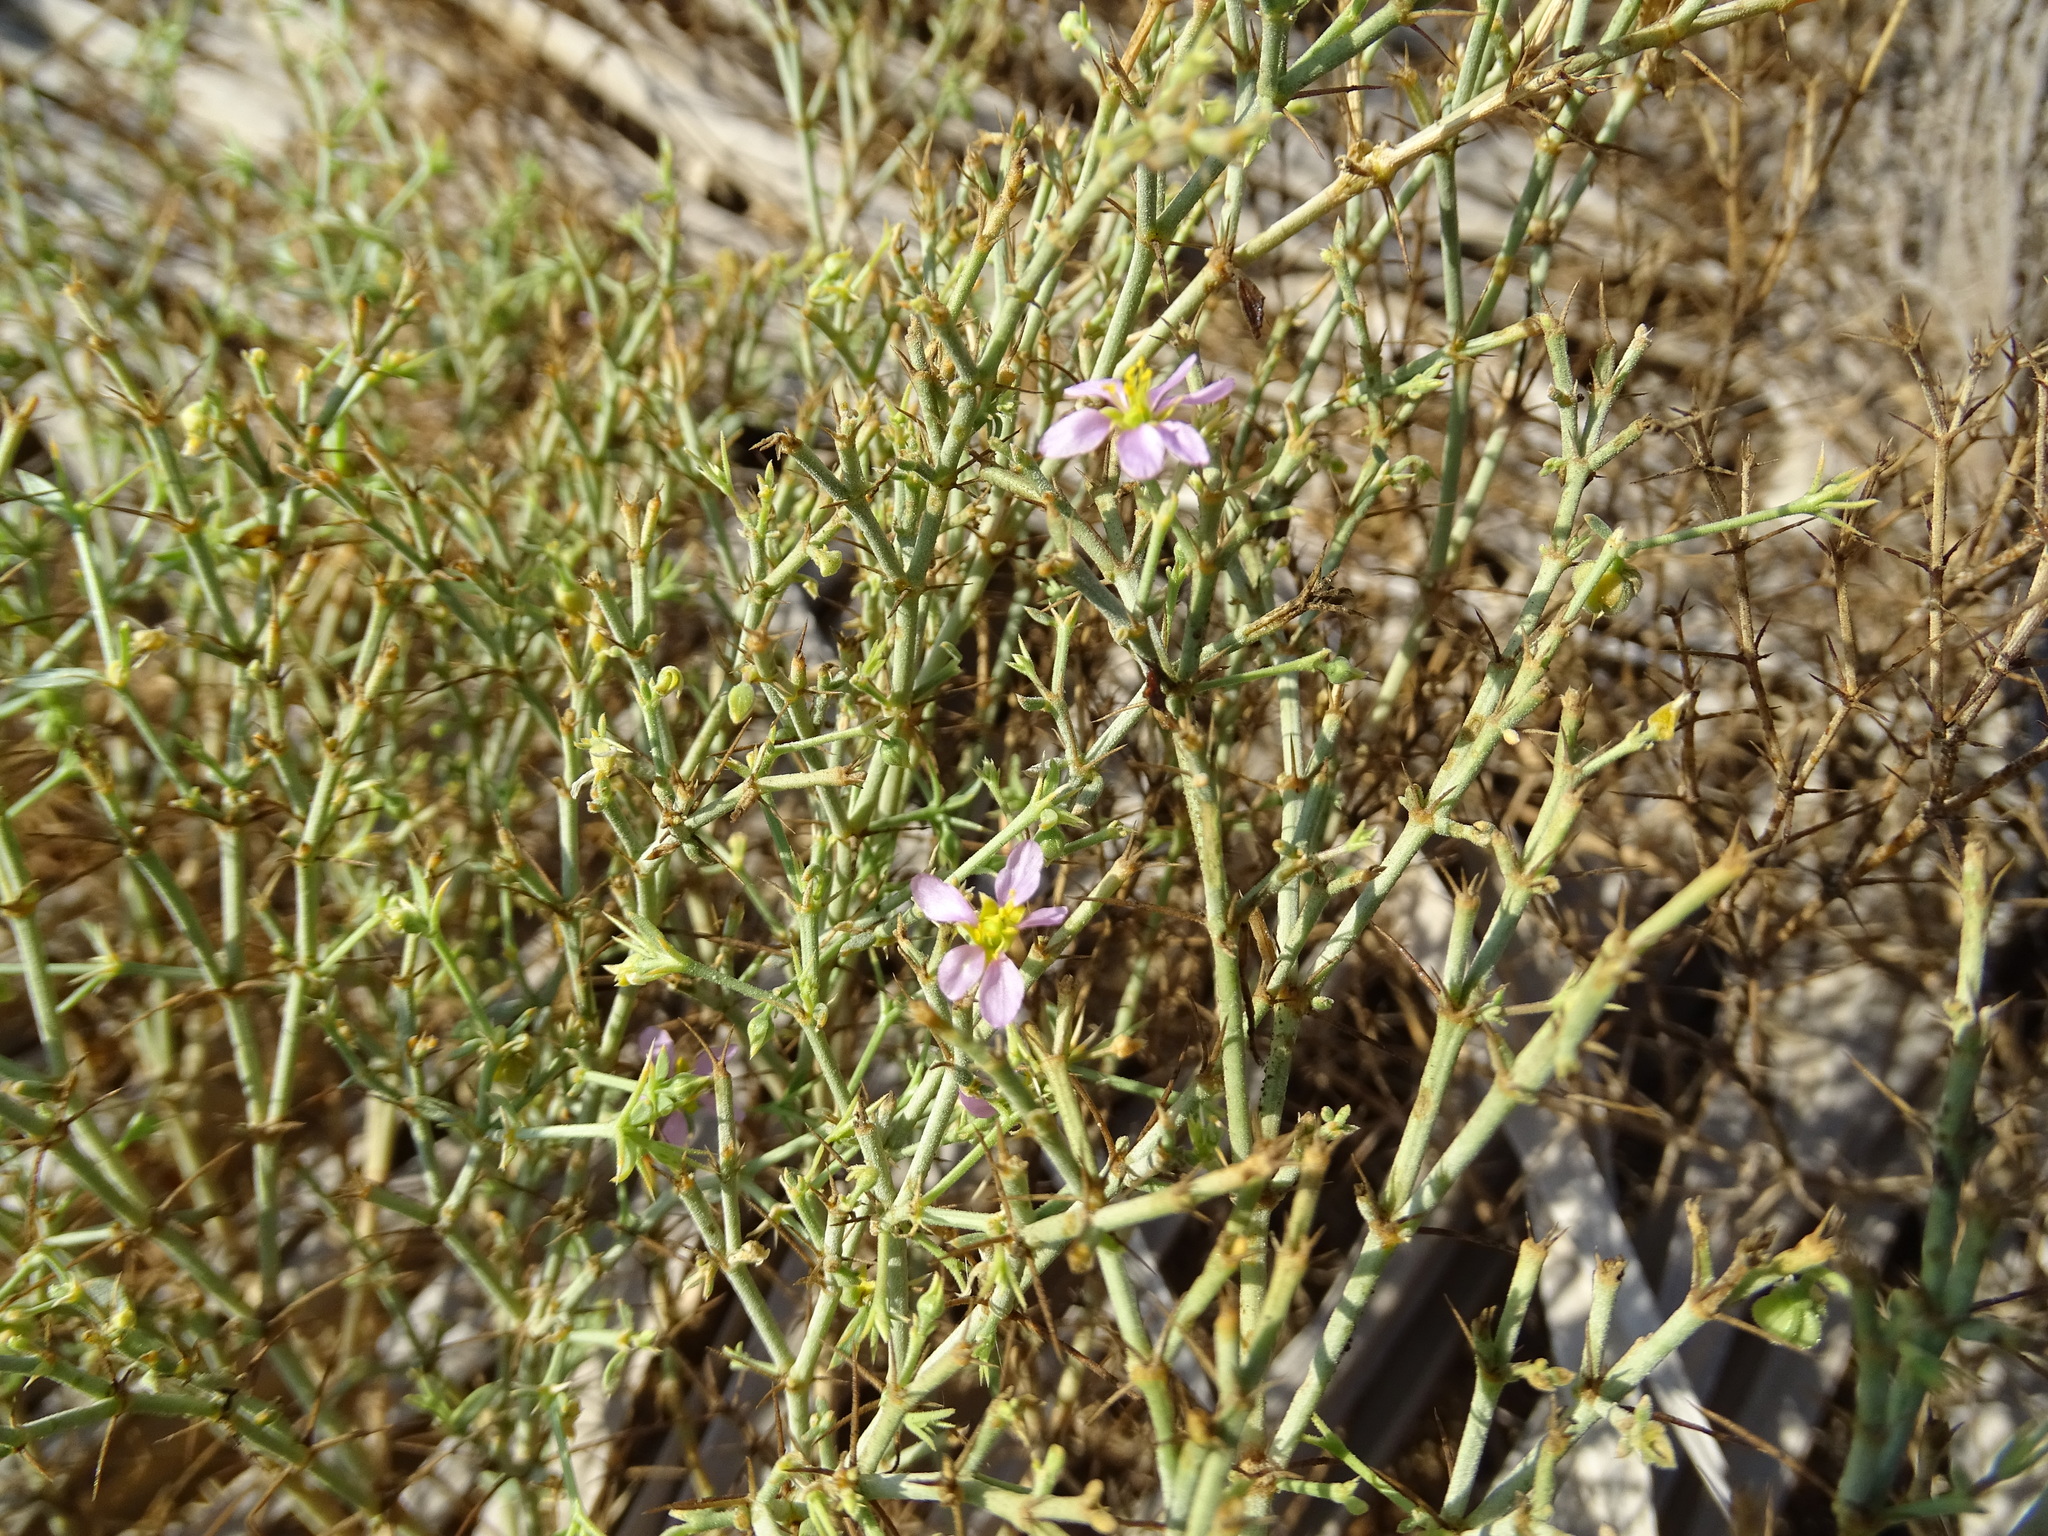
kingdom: Plantae
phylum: Tracheophyta
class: Magnoliopsida
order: Zygophyllales
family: Zygophyllaceae
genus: Fagonia
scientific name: Fagonia indica
